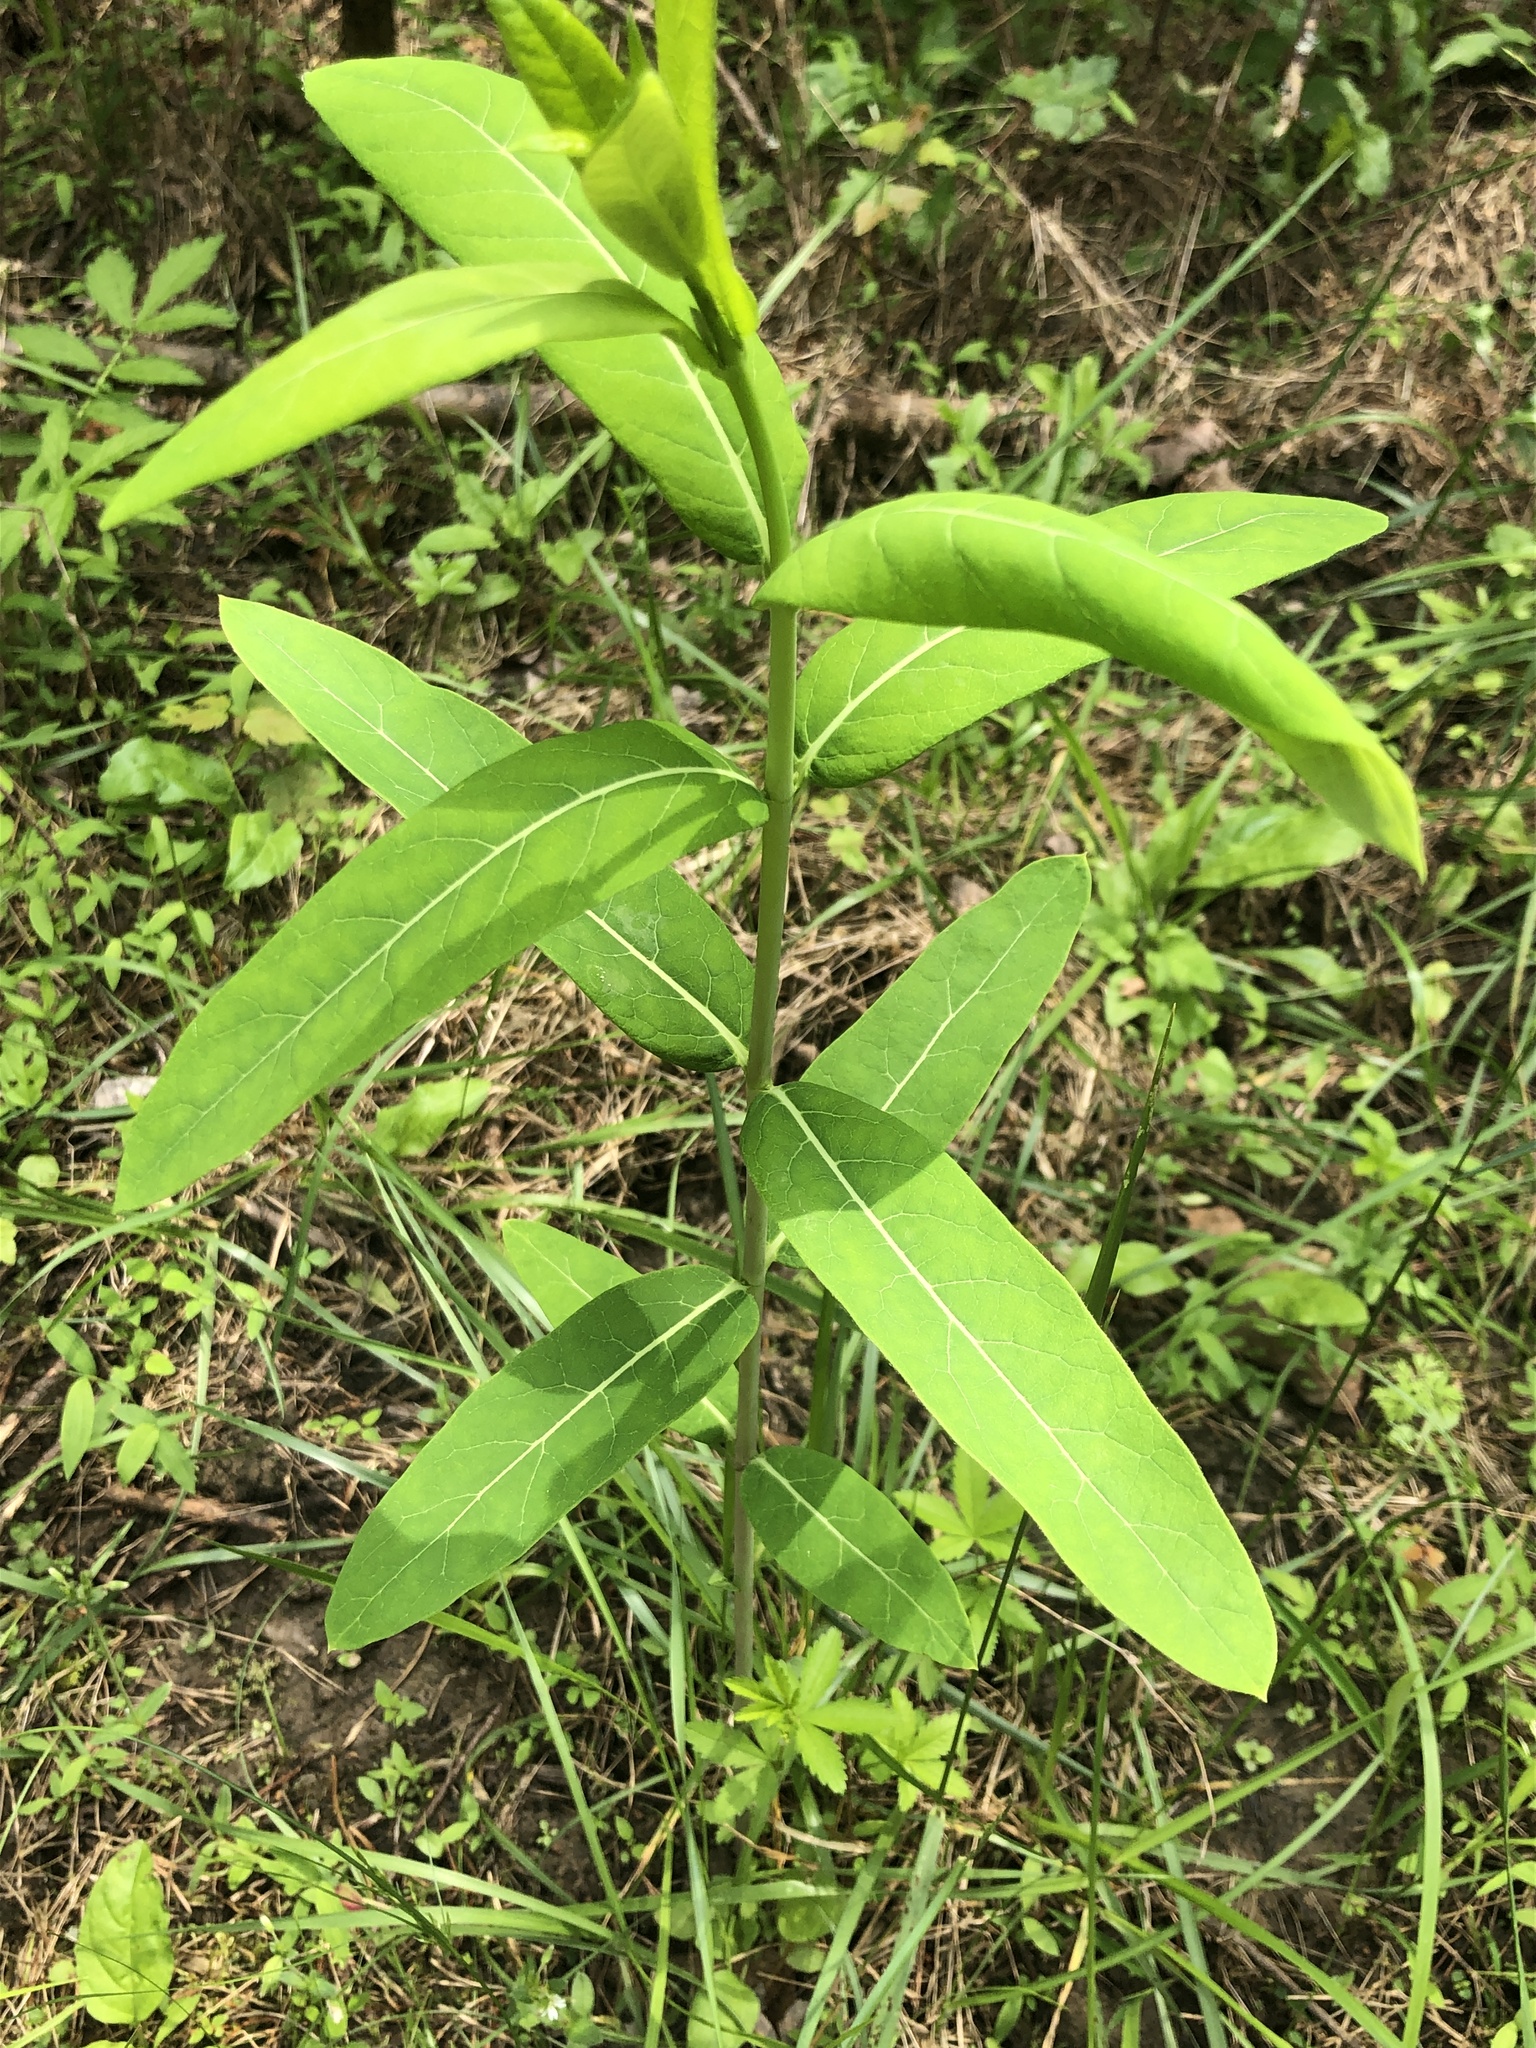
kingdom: Plantae
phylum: Tracheophyta
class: Magnoliopsida
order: Gentianales
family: Apocynaceae
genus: Apocynum
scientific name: Apocynum cannabinum
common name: Hemp dogbane
